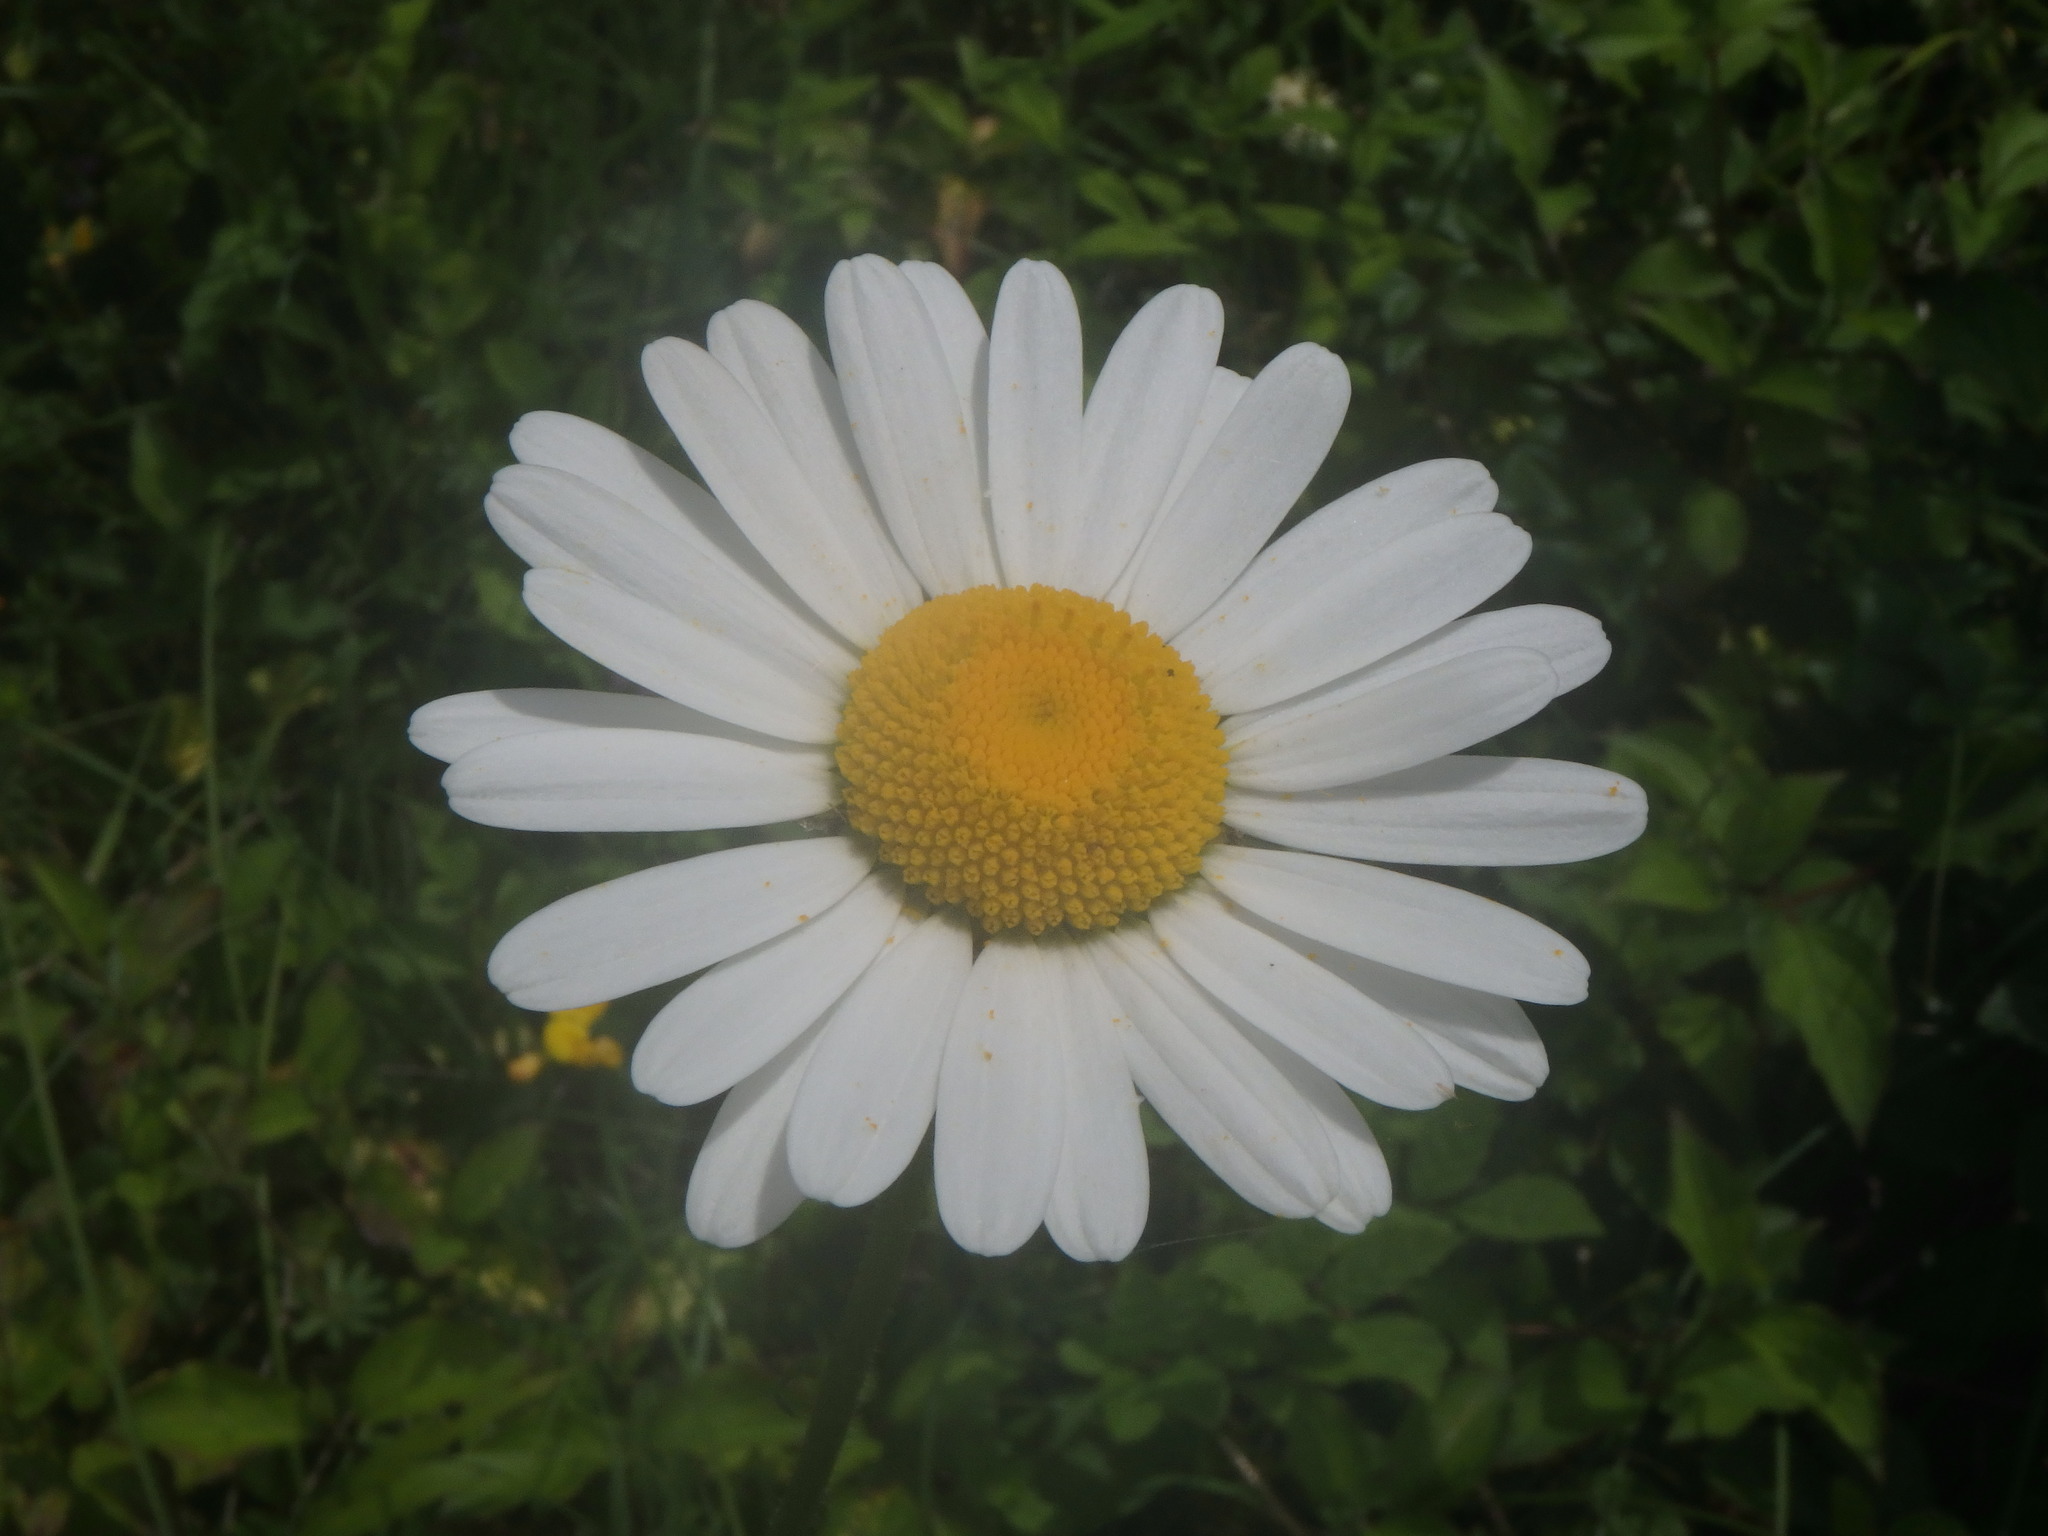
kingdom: Plantae
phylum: Tracheophyta
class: Magnoliopsida
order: Asterales
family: Asteraceae
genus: Leucanthemum
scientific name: Leucanthemum vulgare
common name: Oxeye daisy
